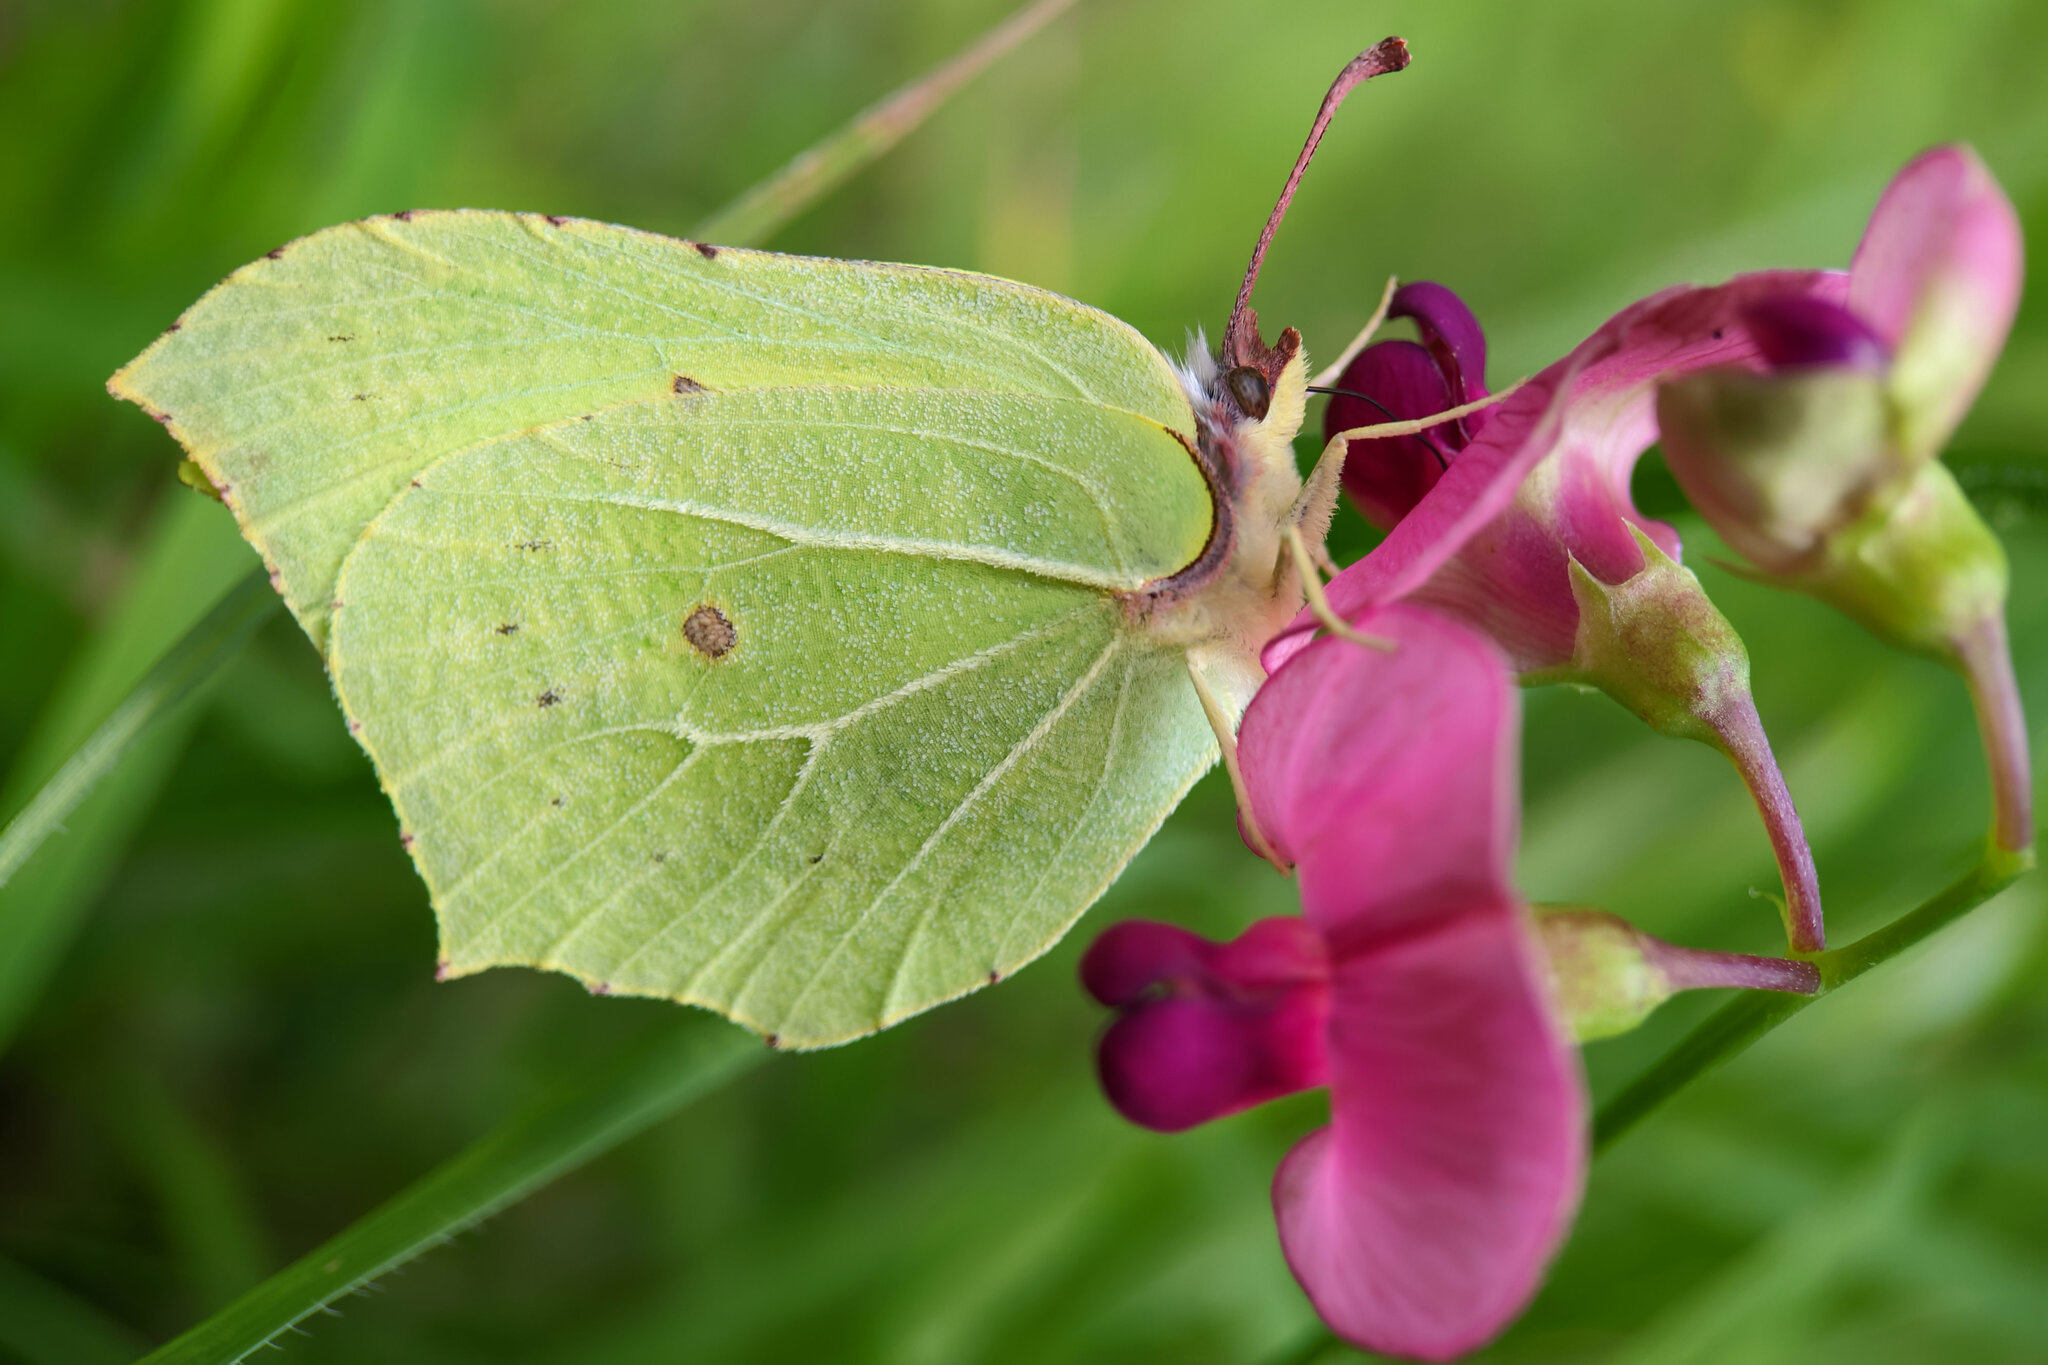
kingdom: Animalia
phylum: Arthropoda
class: Insecta
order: Lepidoptera
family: Pieridae
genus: Gonepteryx
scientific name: Gonepteryx rhamni
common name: Brimstone
